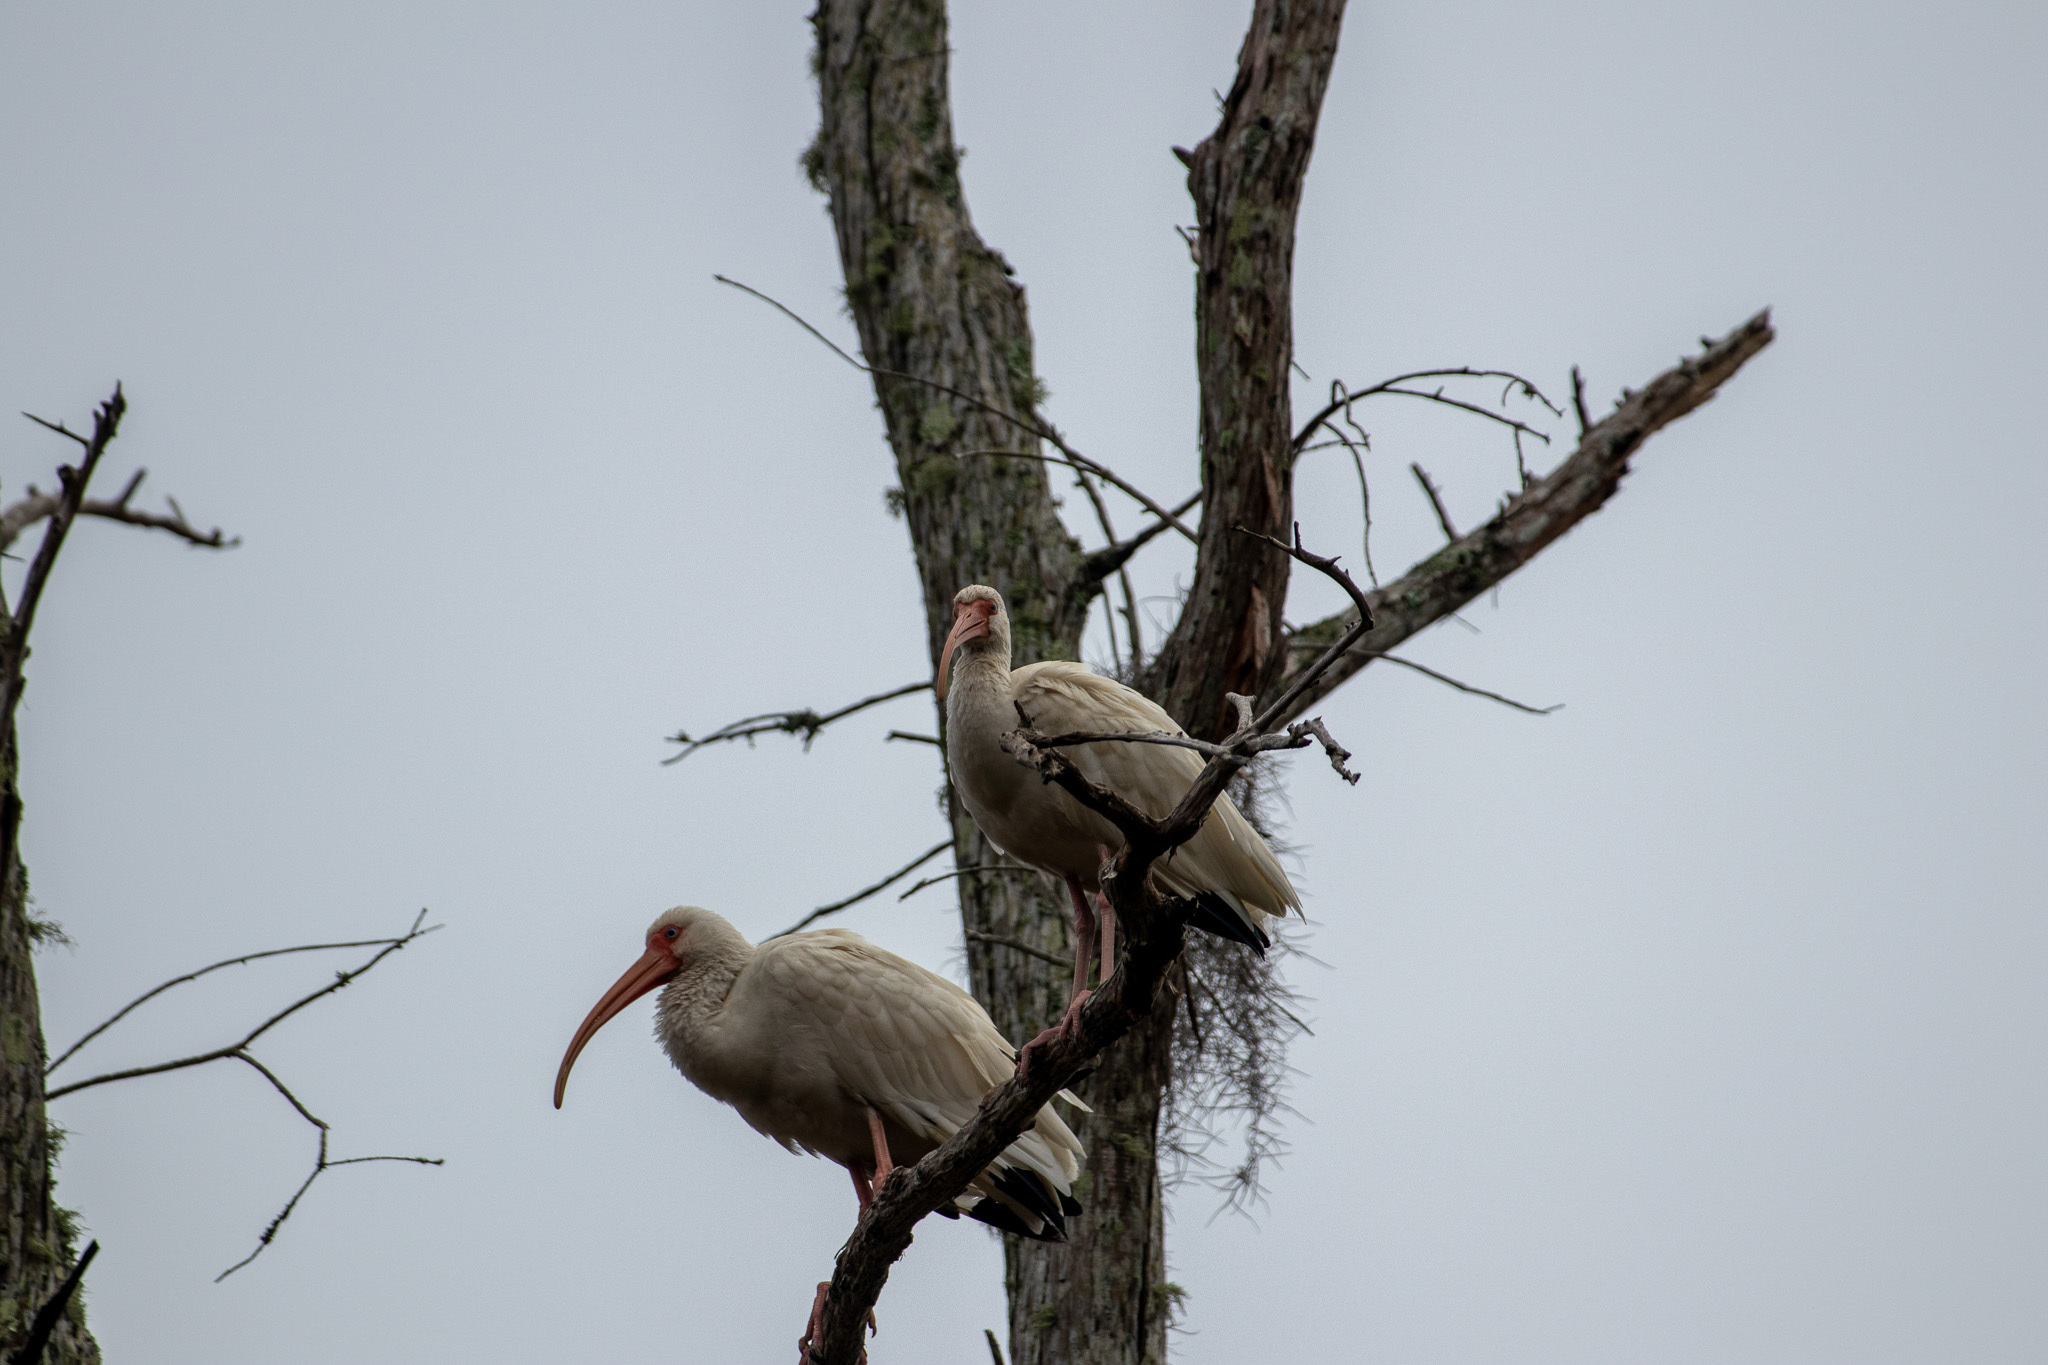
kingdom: Animalia
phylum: Chordata
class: Aves
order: Pelecaniformes
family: Threskiornithidae
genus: Eudocimus
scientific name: Eudocimus albus
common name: White ibis
